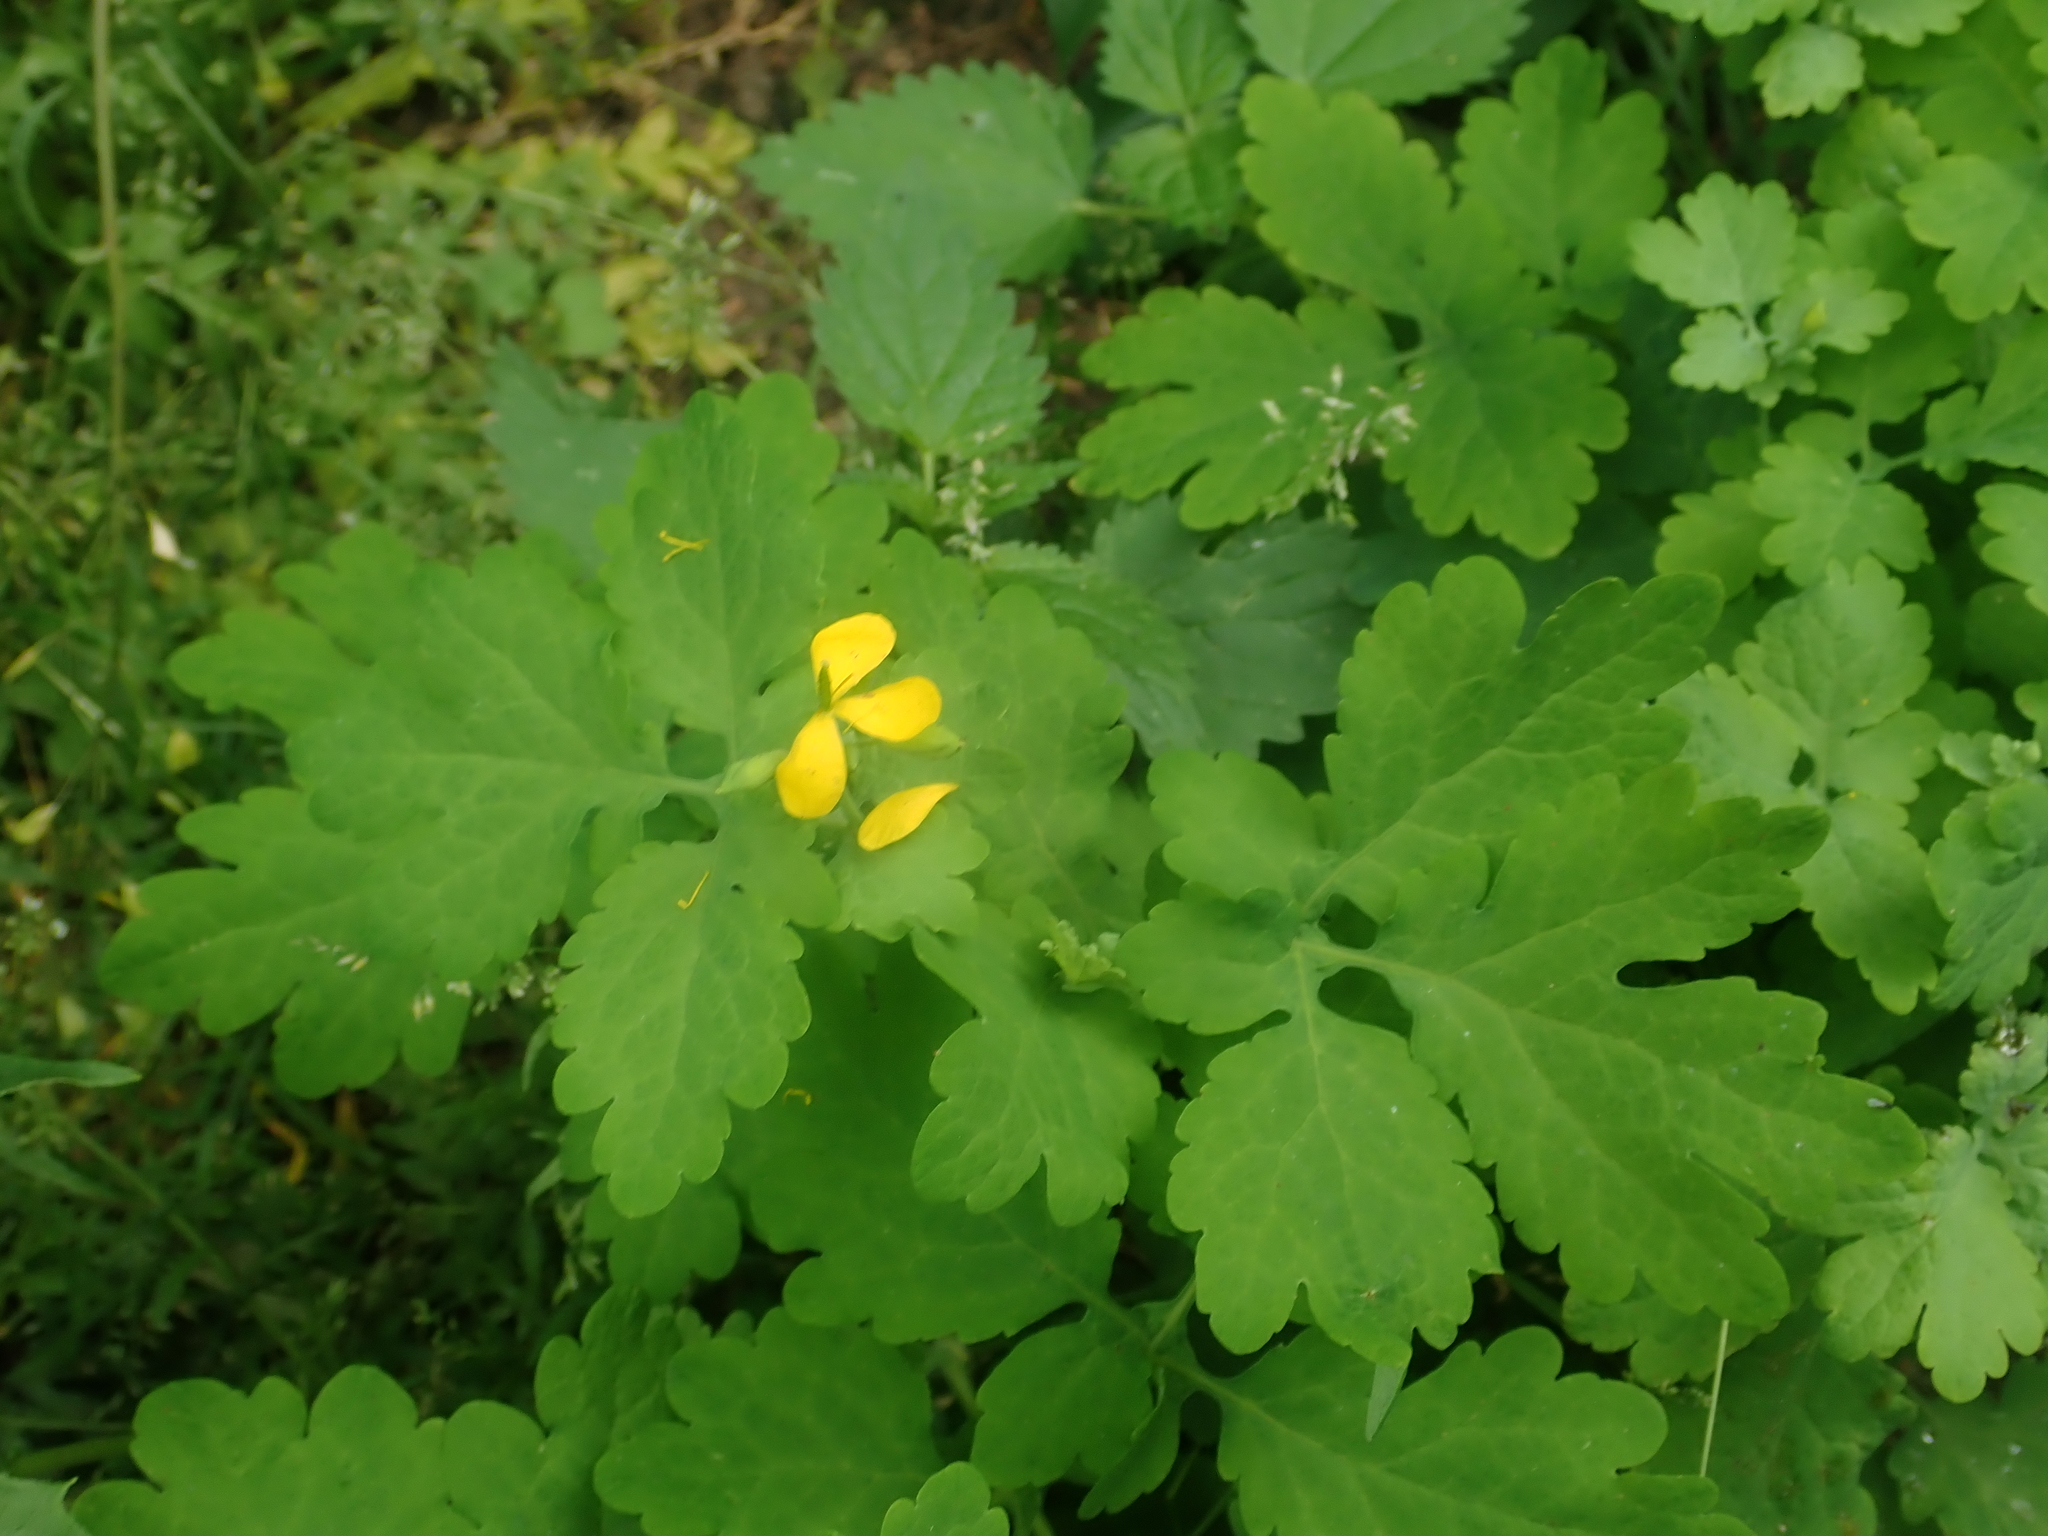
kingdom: Plantae
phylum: Tracheophyta
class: Magnoliopsida
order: Ranunculales
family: Papaveraceae
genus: Chelidonium
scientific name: Chelidonium majus
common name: Greater celandine
